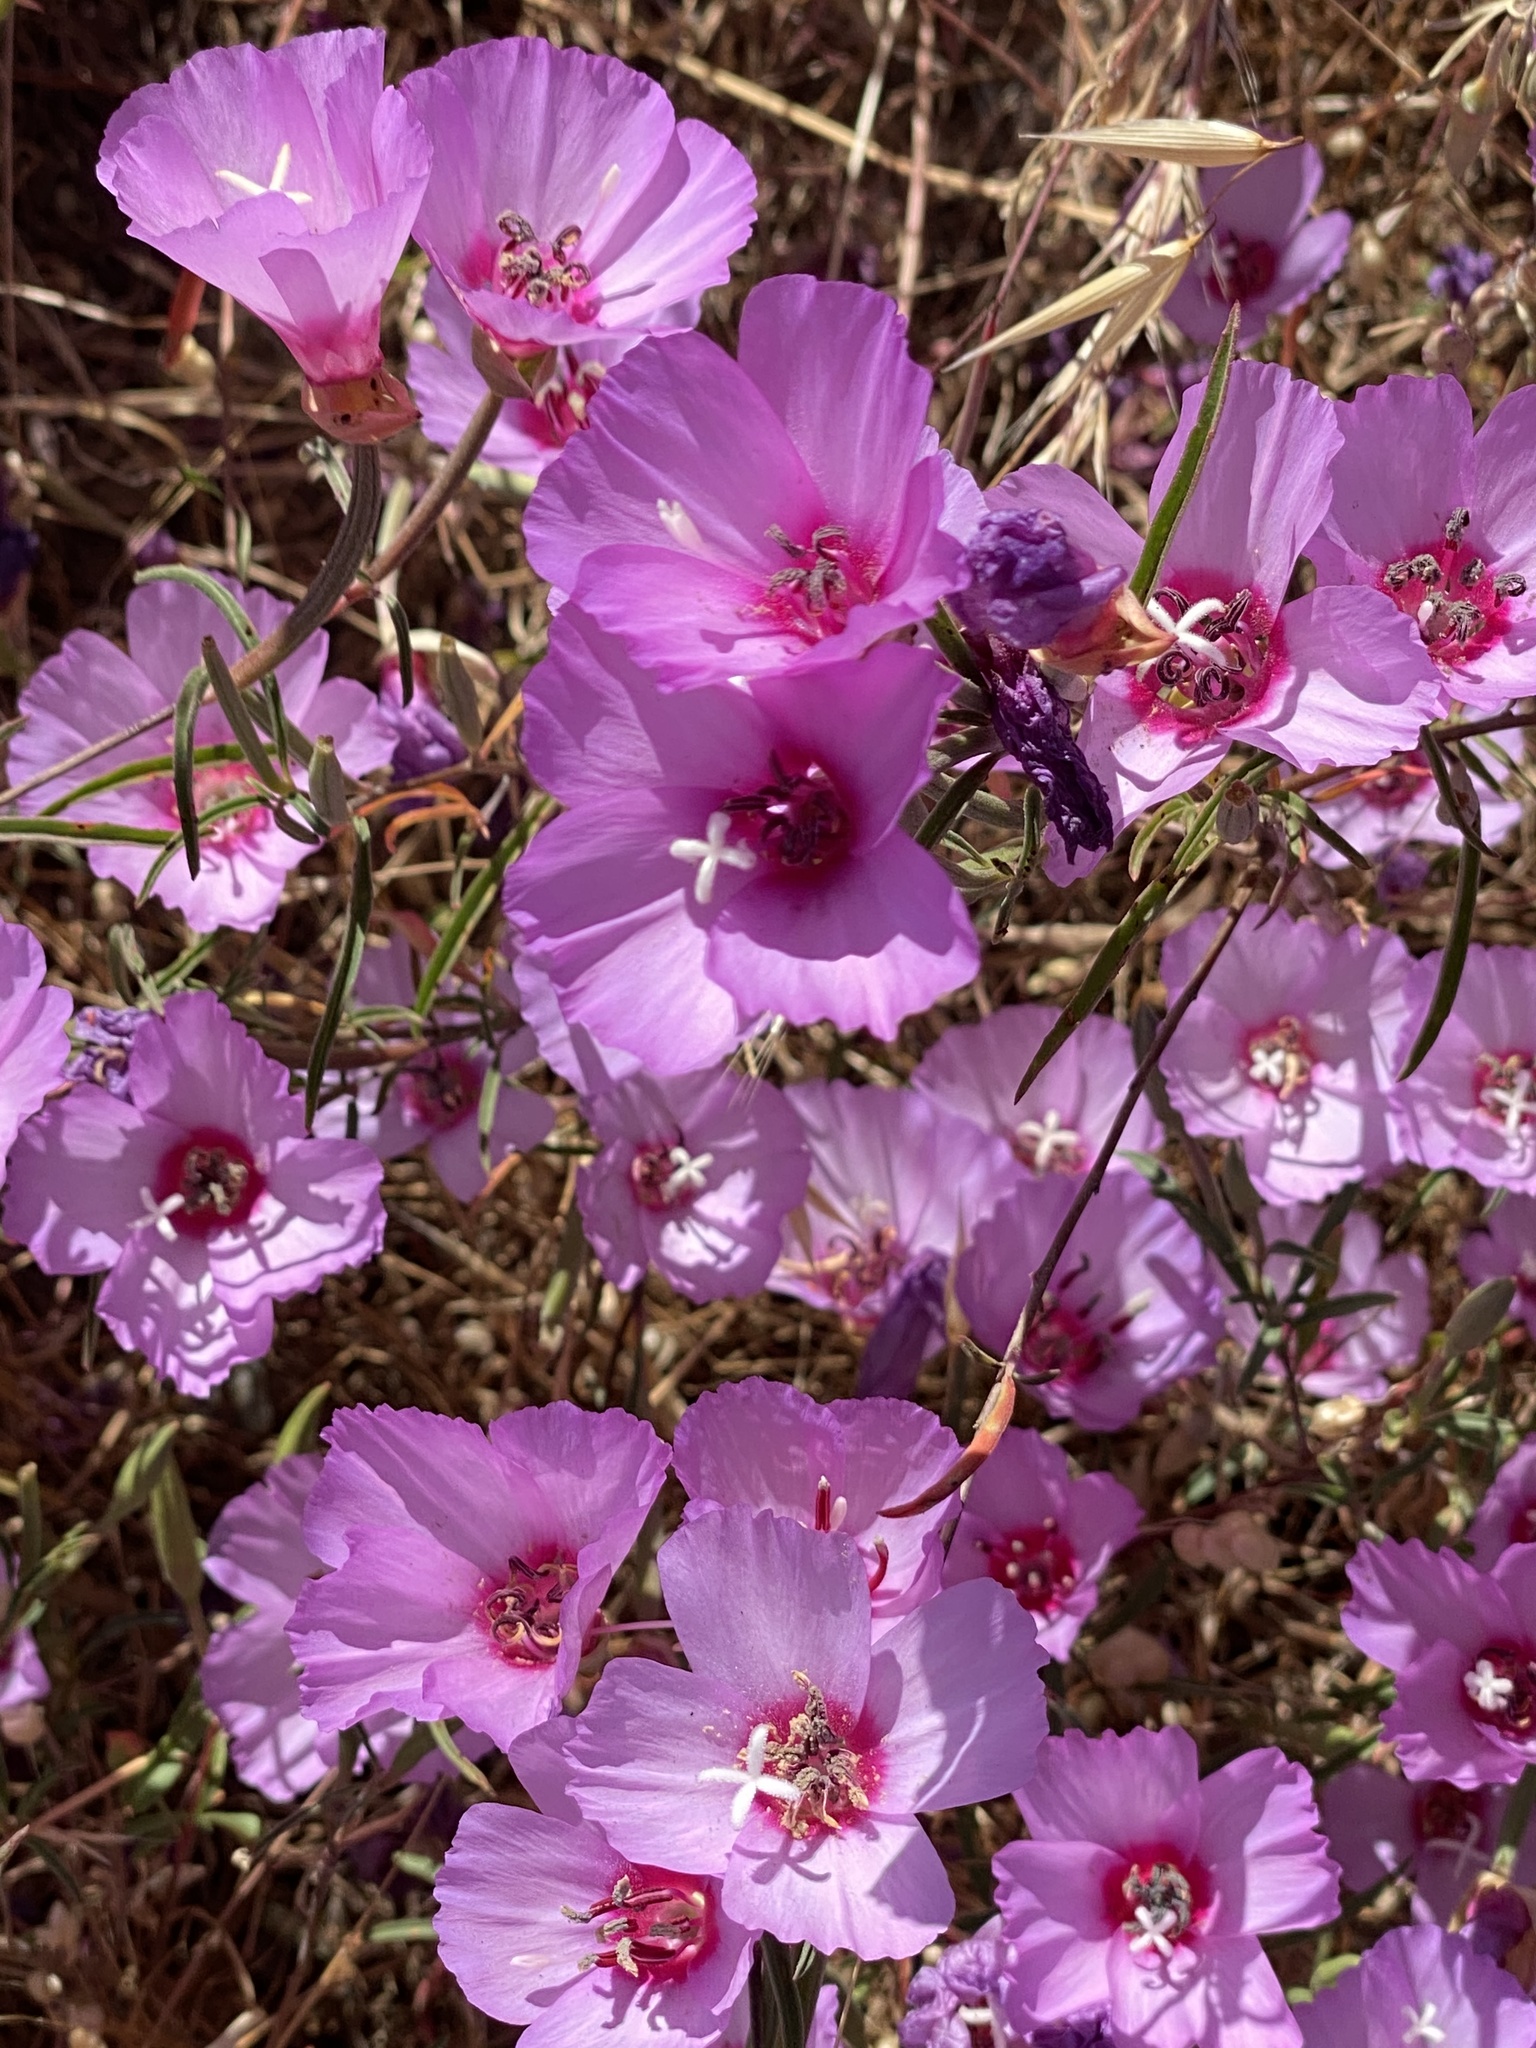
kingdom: Plantae
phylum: Tracheophyta
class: Magnoliopsida
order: Myrtales
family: Onagraceae
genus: Clarkia
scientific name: Clarkia rubicunda
